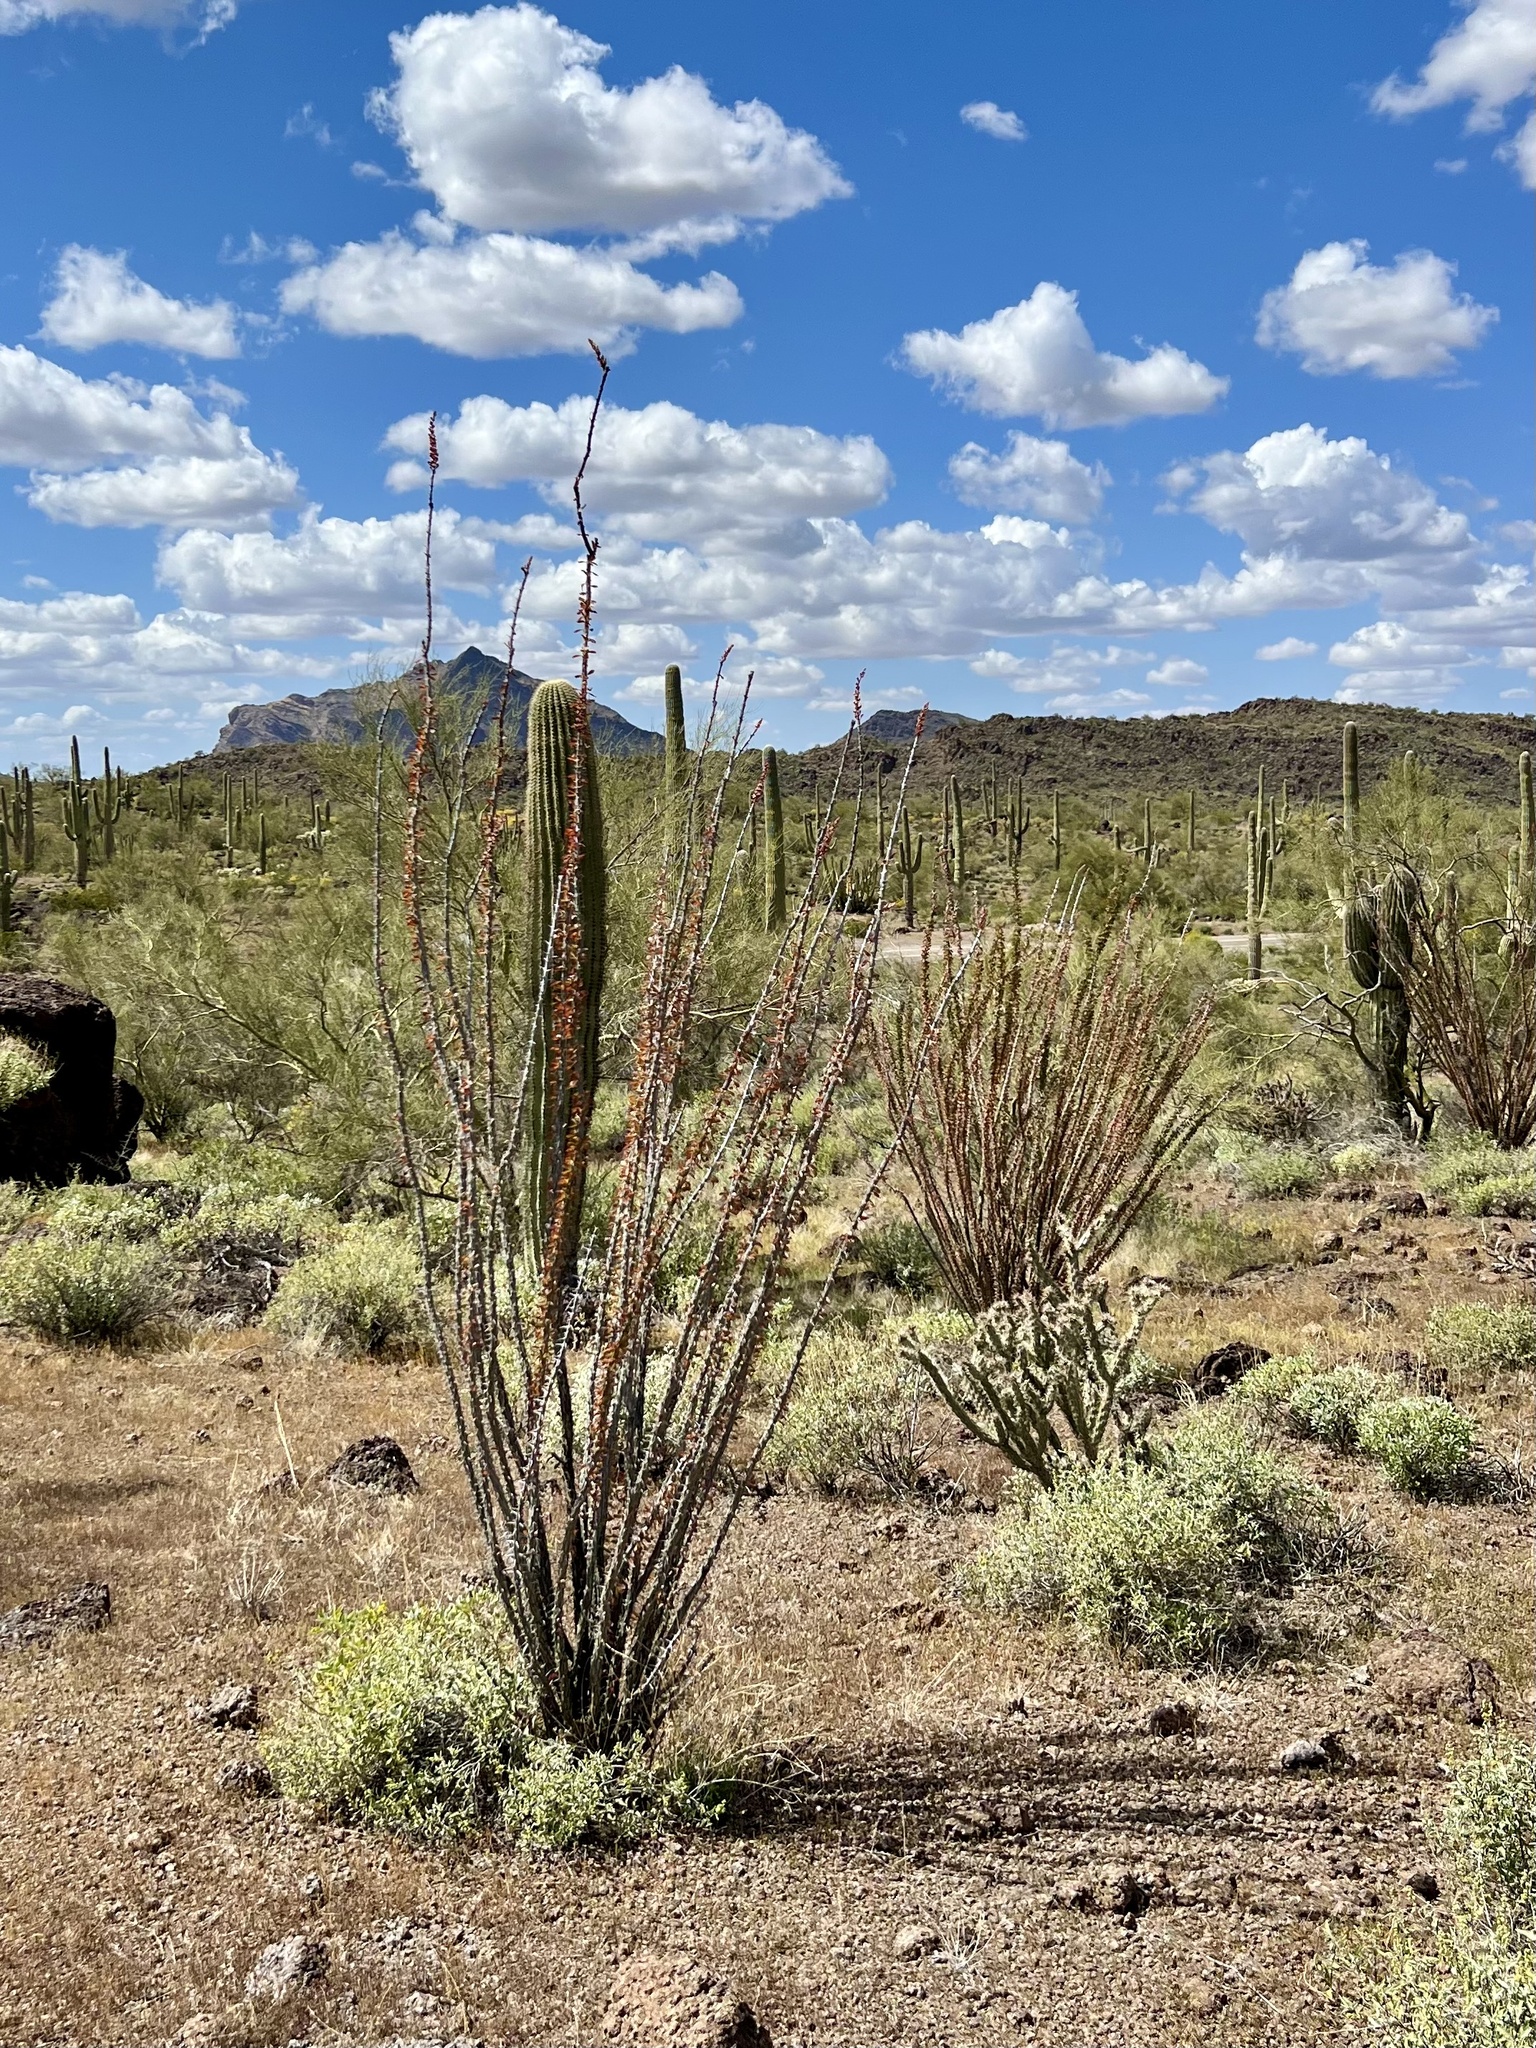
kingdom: Plantae
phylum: Tracheophyta
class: Magnoliopsida
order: Ericales
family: Fouquieriaceae
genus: Fouquieria
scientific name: Fouquieria splendens
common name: Vine-cactus
